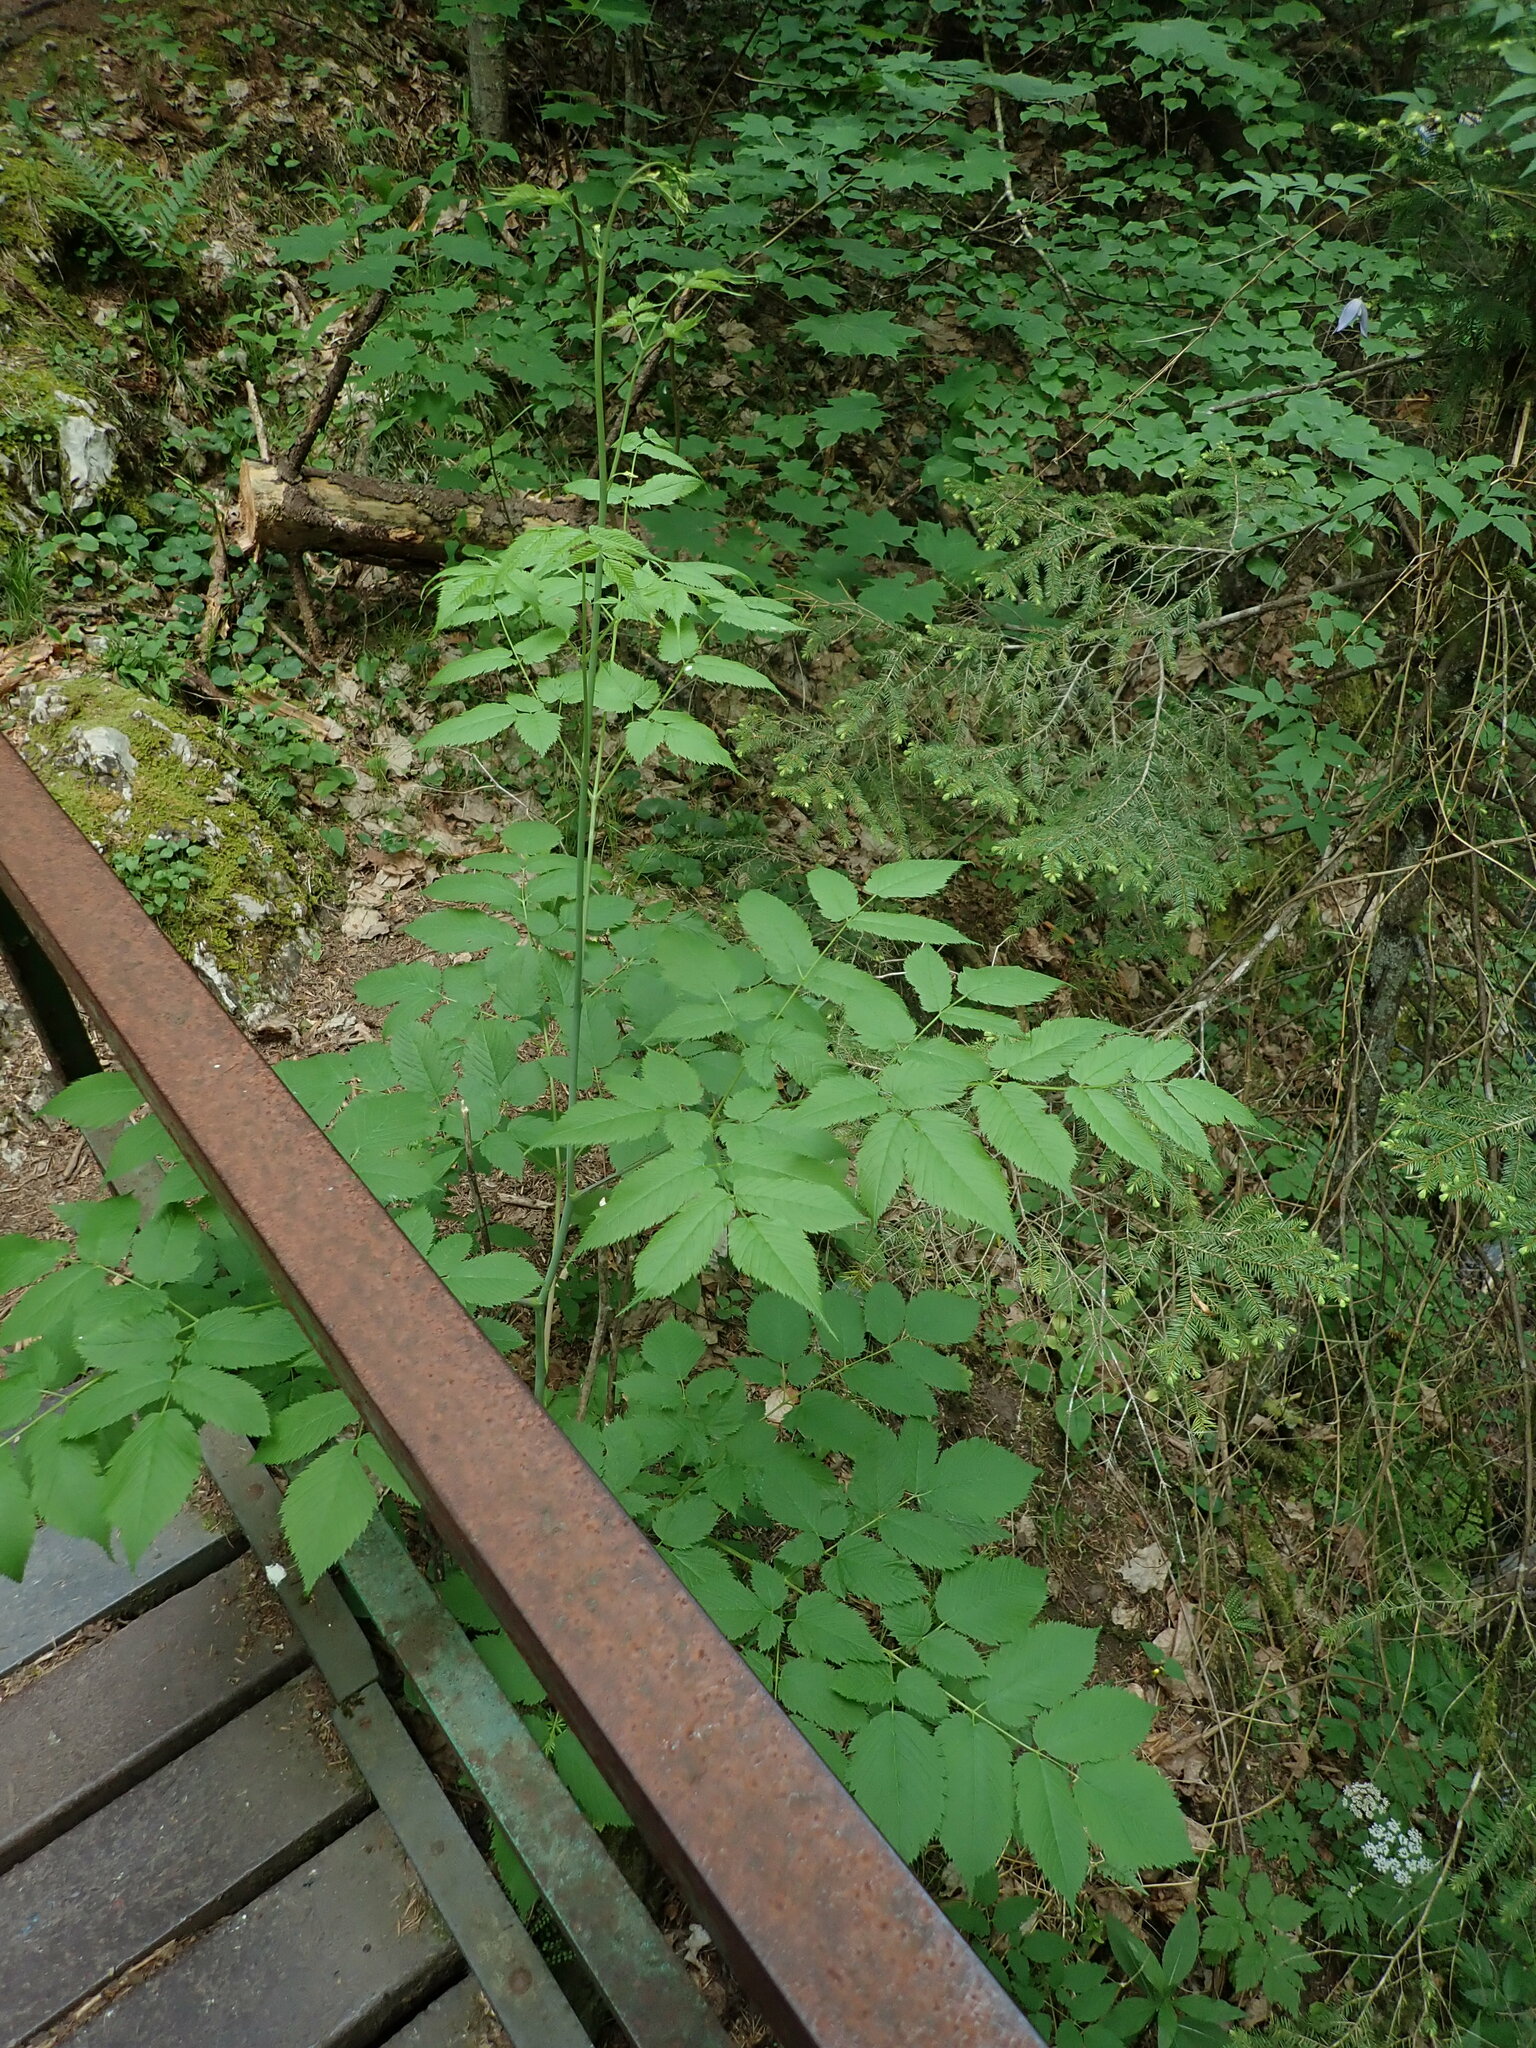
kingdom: Plantae
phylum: Tracheophyta
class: Magnoliopsida
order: Rosales
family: Rosaceae
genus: Aruncus
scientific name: Aruncus dioicus
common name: Buck's-beard
